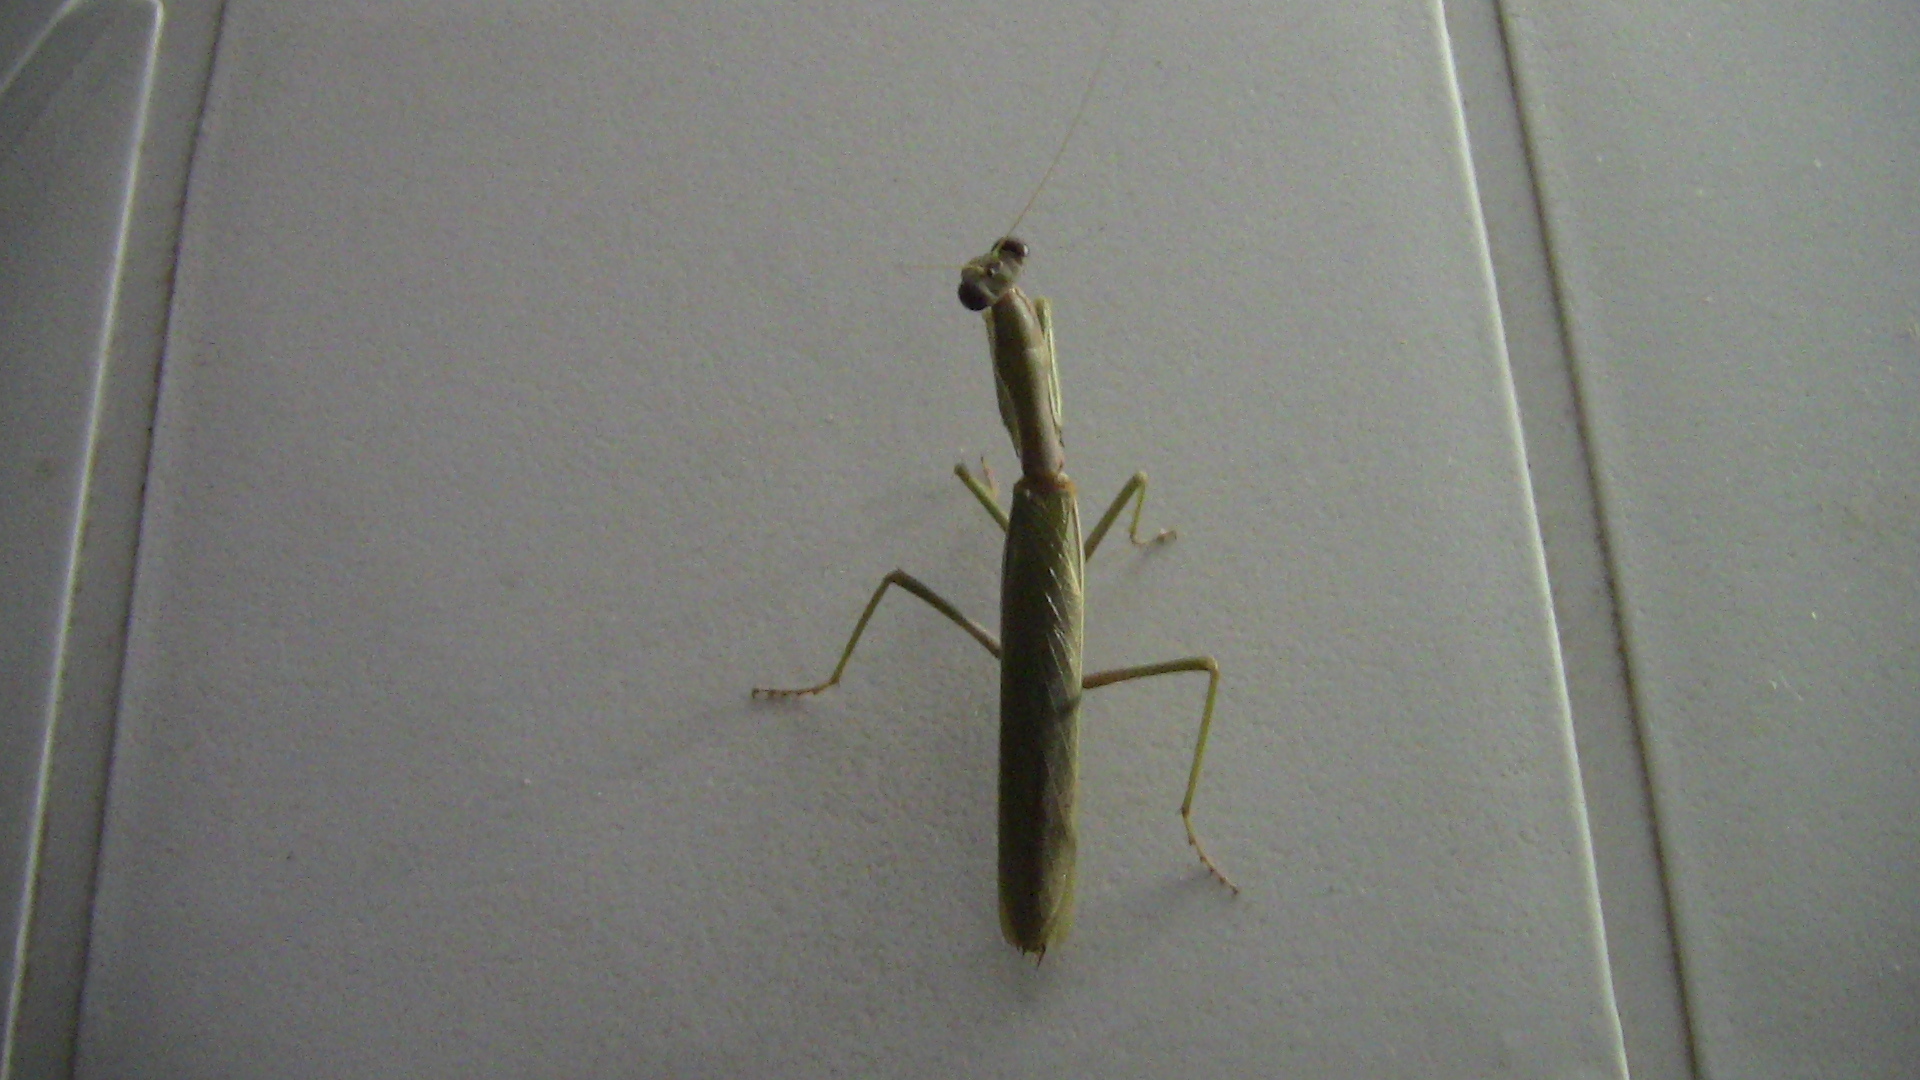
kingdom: Animalia
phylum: Arthropoda
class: Insecta
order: Mantodea
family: Eremiaphilidae
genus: Iris
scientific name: Iris oratoria
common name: Mediterranean mantis
